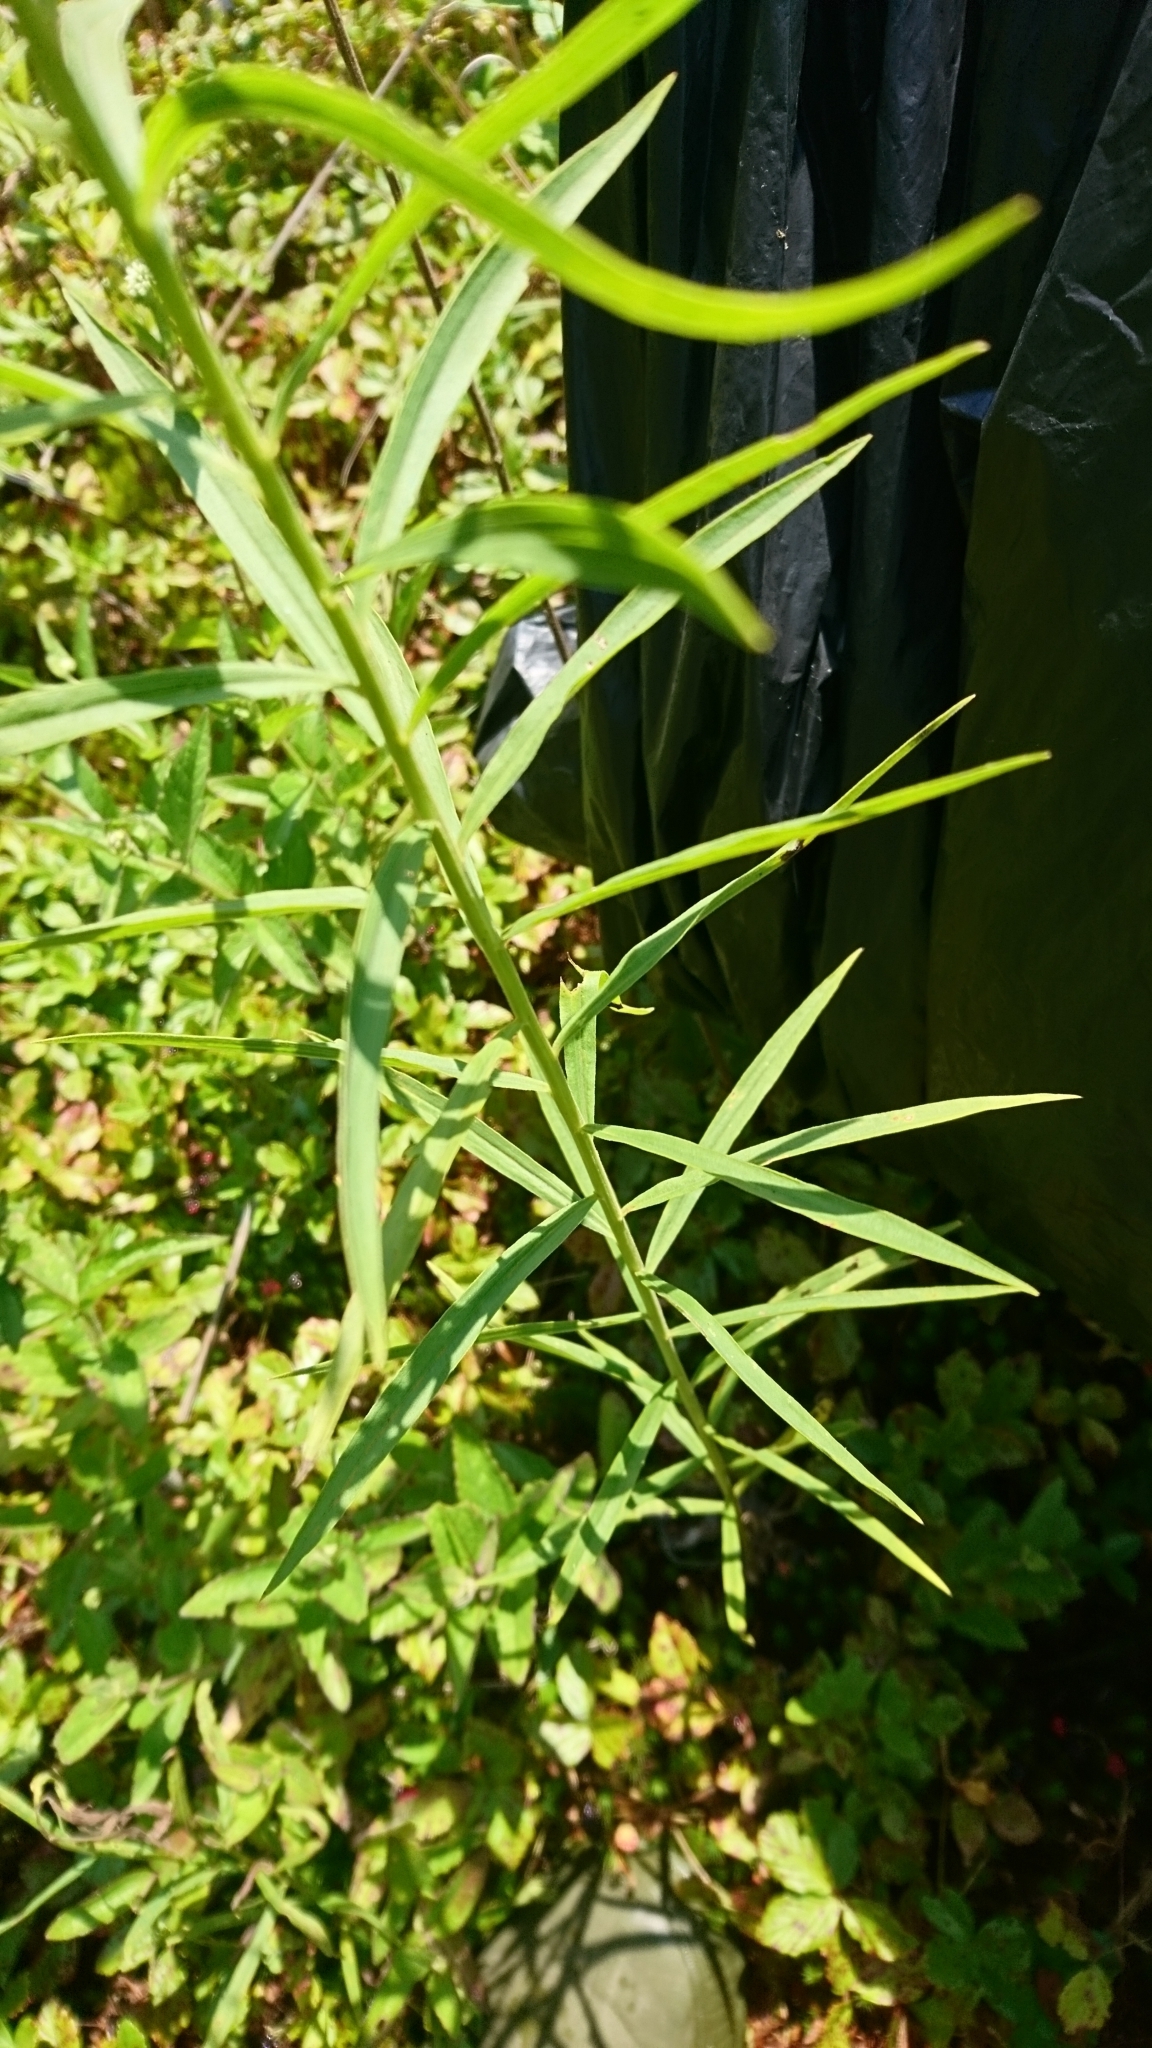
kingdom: Plantae
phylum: Tracheophyta
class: Magnoliopsida
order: Asterales
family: Asteraceae
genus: Euthamia
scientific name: Euthamia graminifolia
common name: Common goldentop
